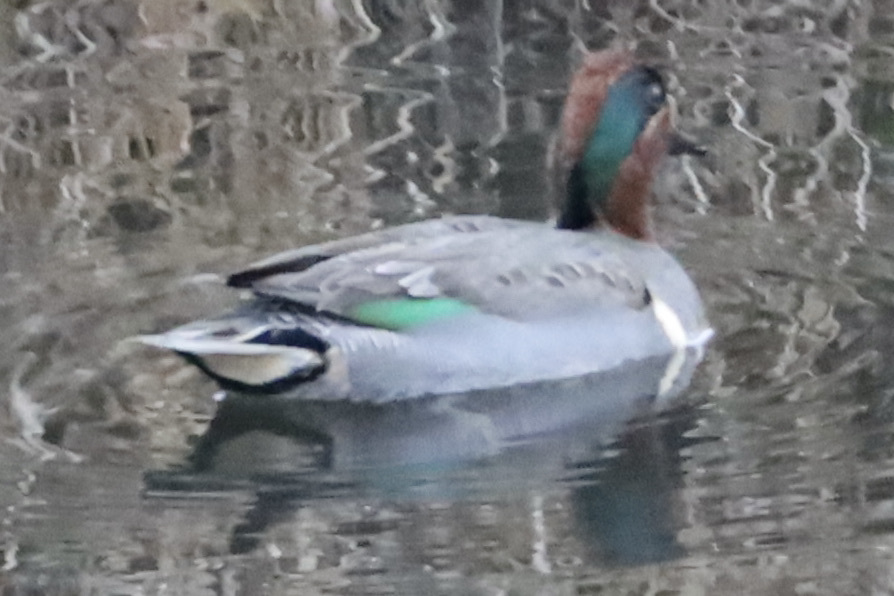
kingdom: Animalia
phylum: Chordata
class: Aves
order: Anseriformes
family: Anatidae
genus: Anas
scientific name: Anas carolinensis
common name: Green-winged teal
